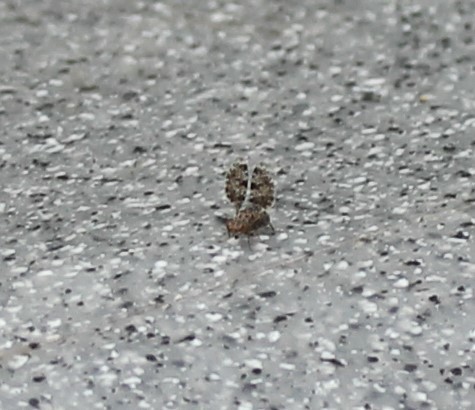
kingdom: Animalia
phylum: Arthropoda
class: Insecta
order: Diptera
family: Ulidiidae
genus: Callopistromyia
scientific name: Callopistromyia annulipes
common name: Peacock fly
